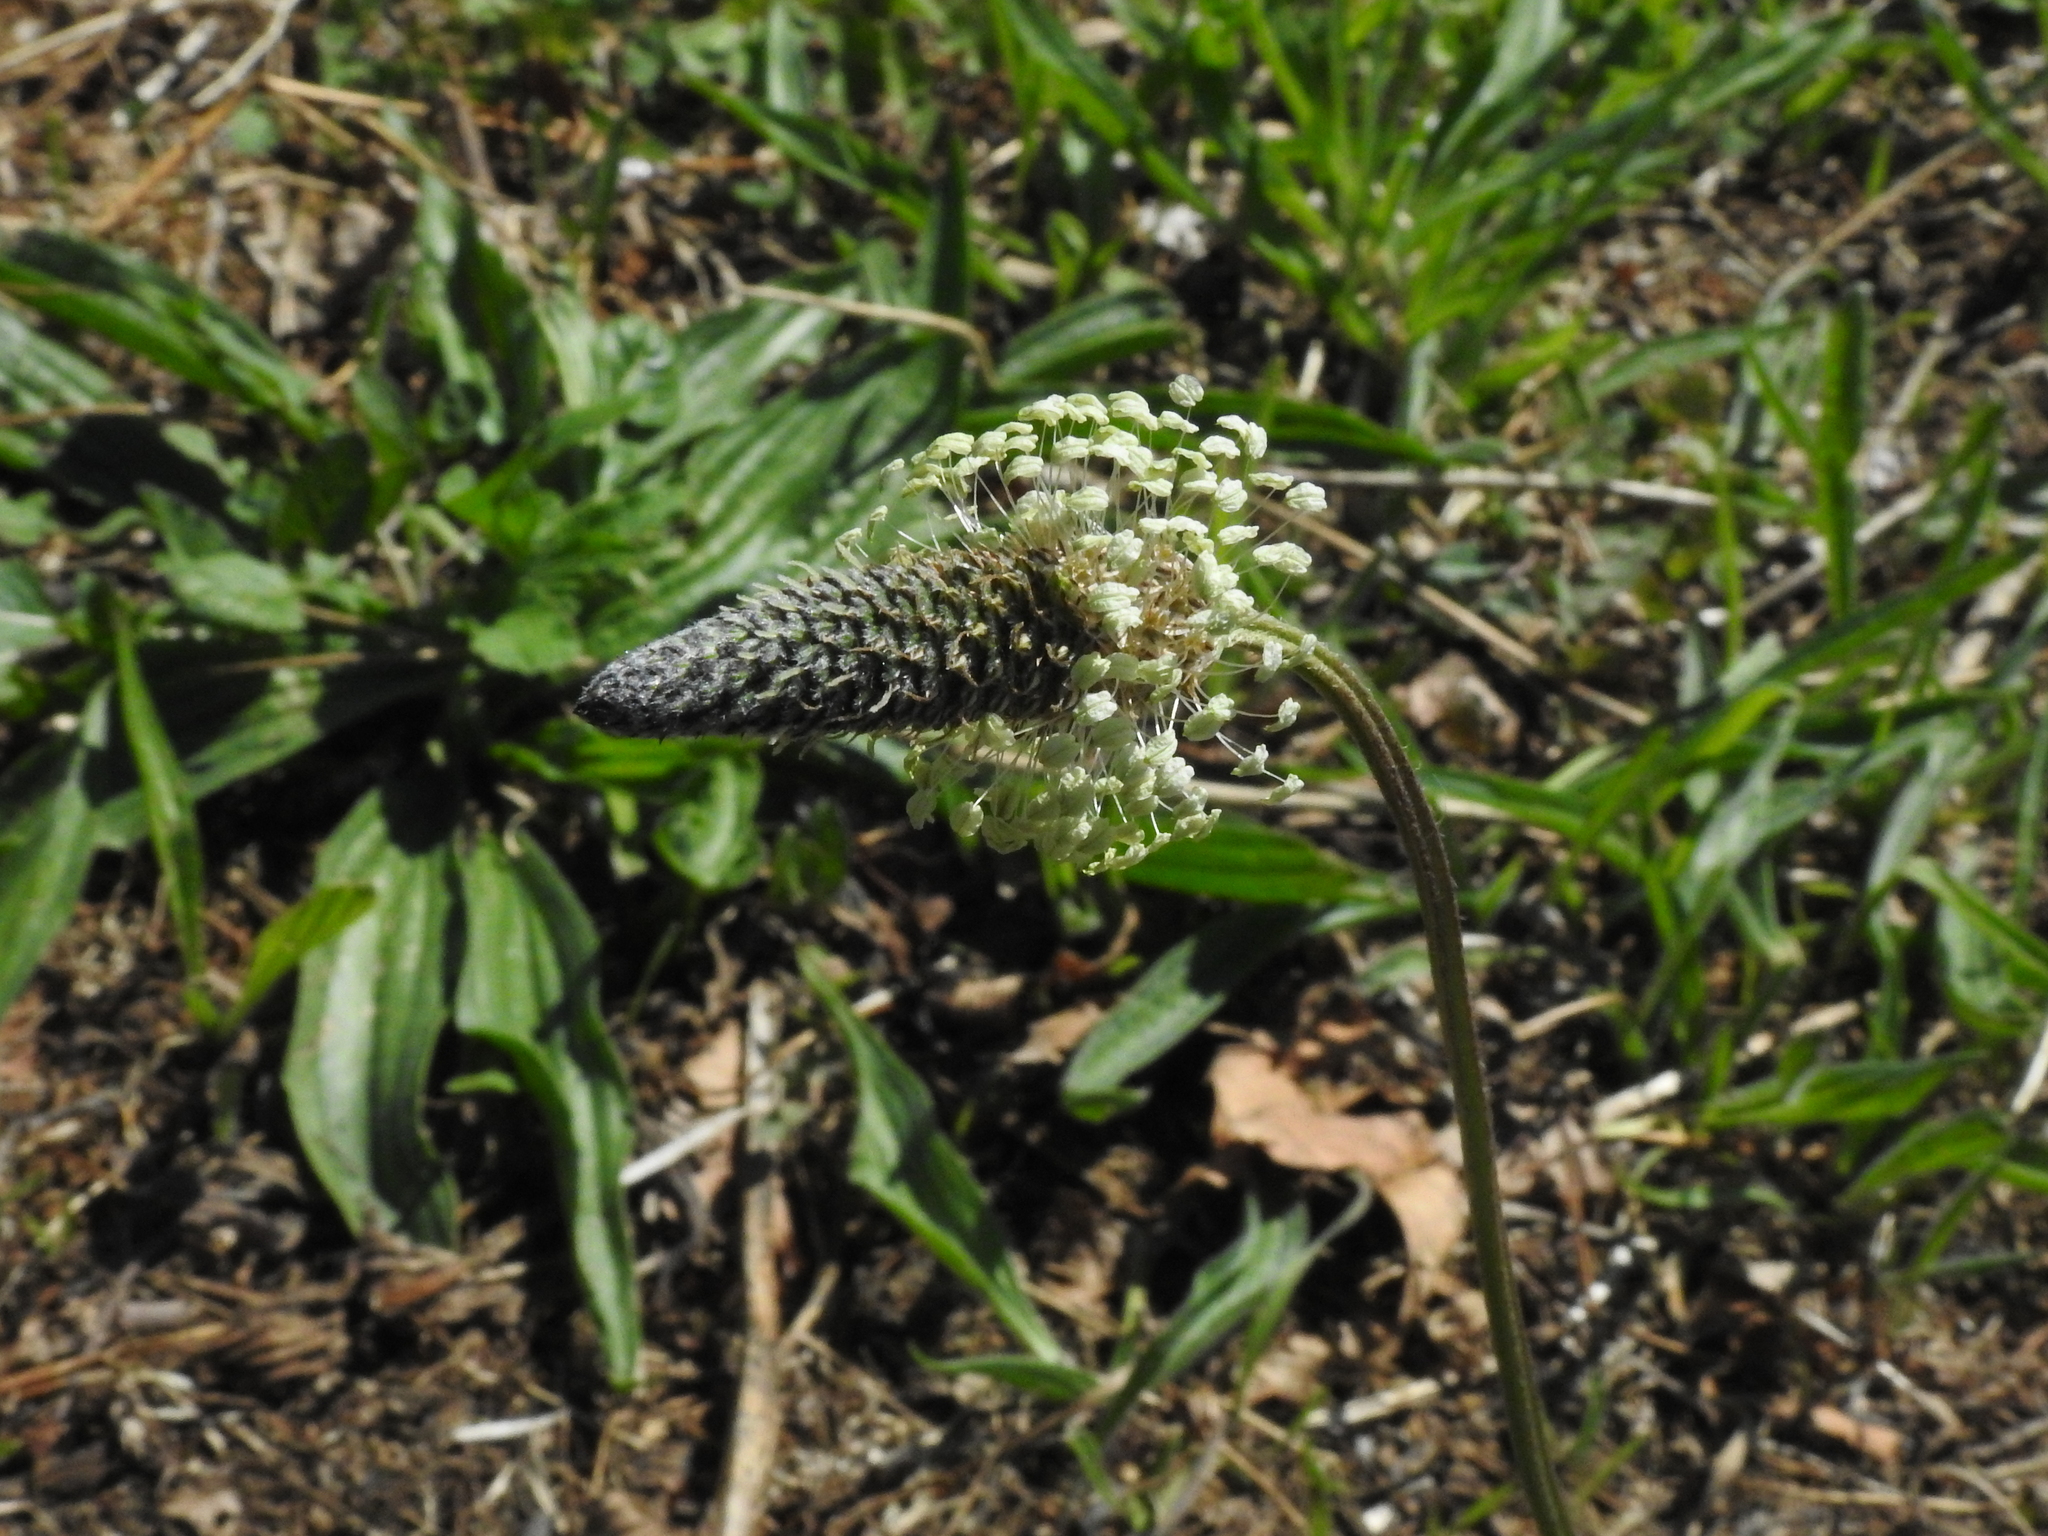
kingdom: Plantae
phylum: Tracheophyta
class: Magnoliopsida
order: Lamiales
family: Plantaginaceae
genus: Plantago
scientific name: Plantago lanceolata
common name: Ribwort plantain
